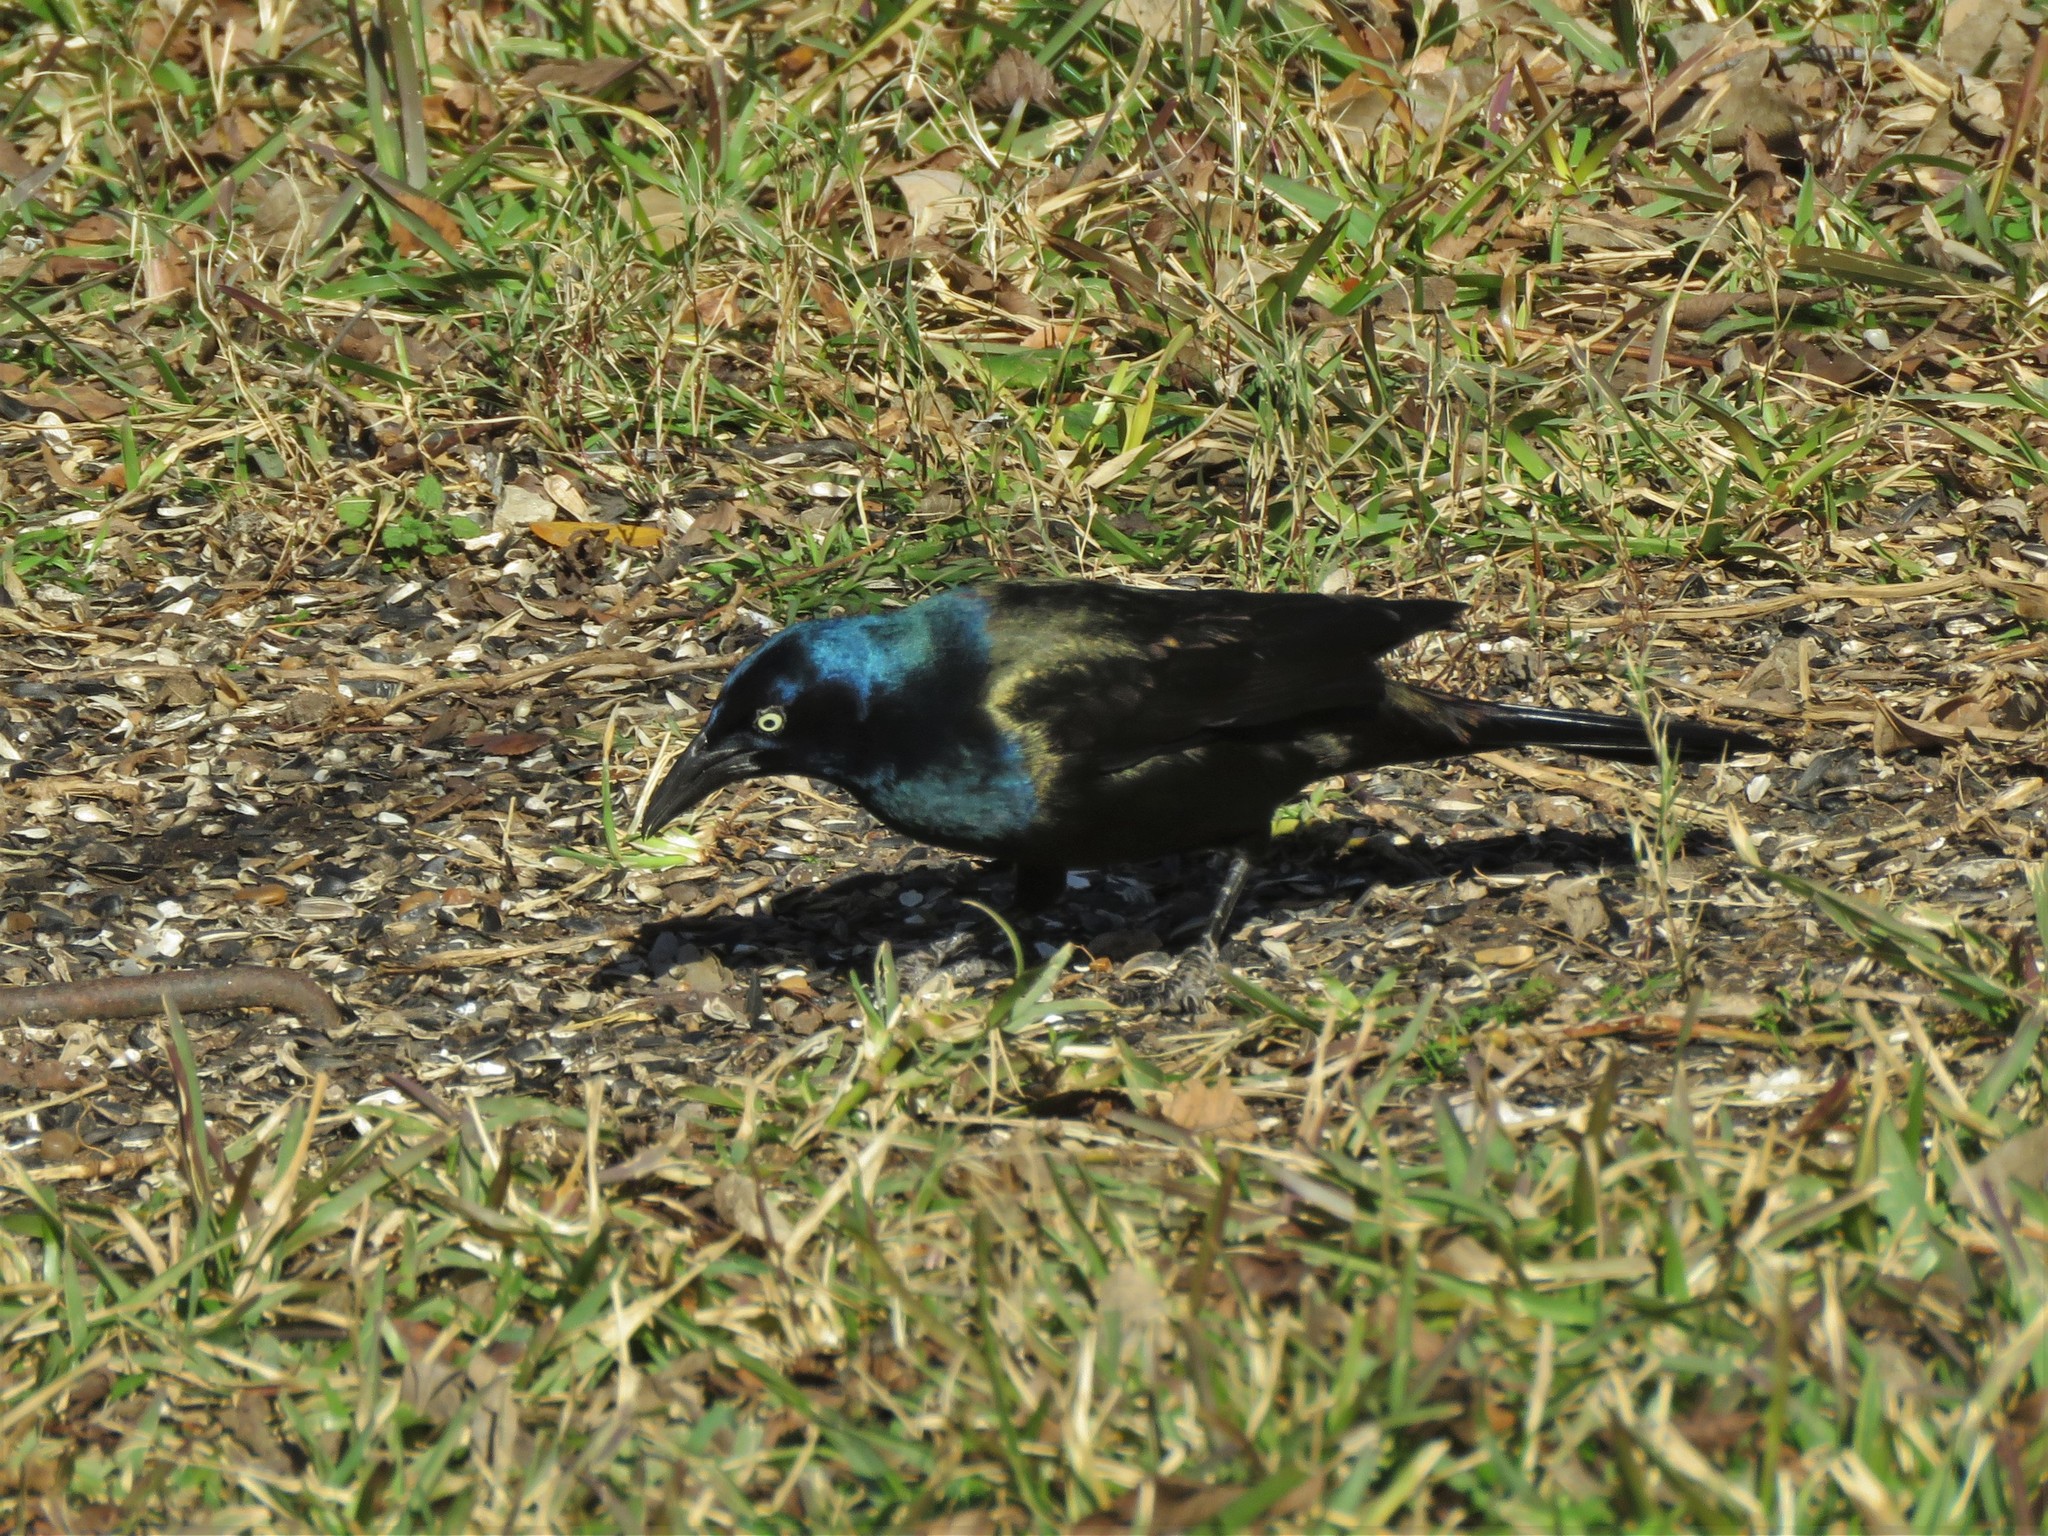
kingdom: Animalia
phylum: Chordata
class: Aves
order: Passeriformes
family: Icteridae
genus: Quiscalus
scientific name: Quiscalus quiscula
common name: Common grackle
